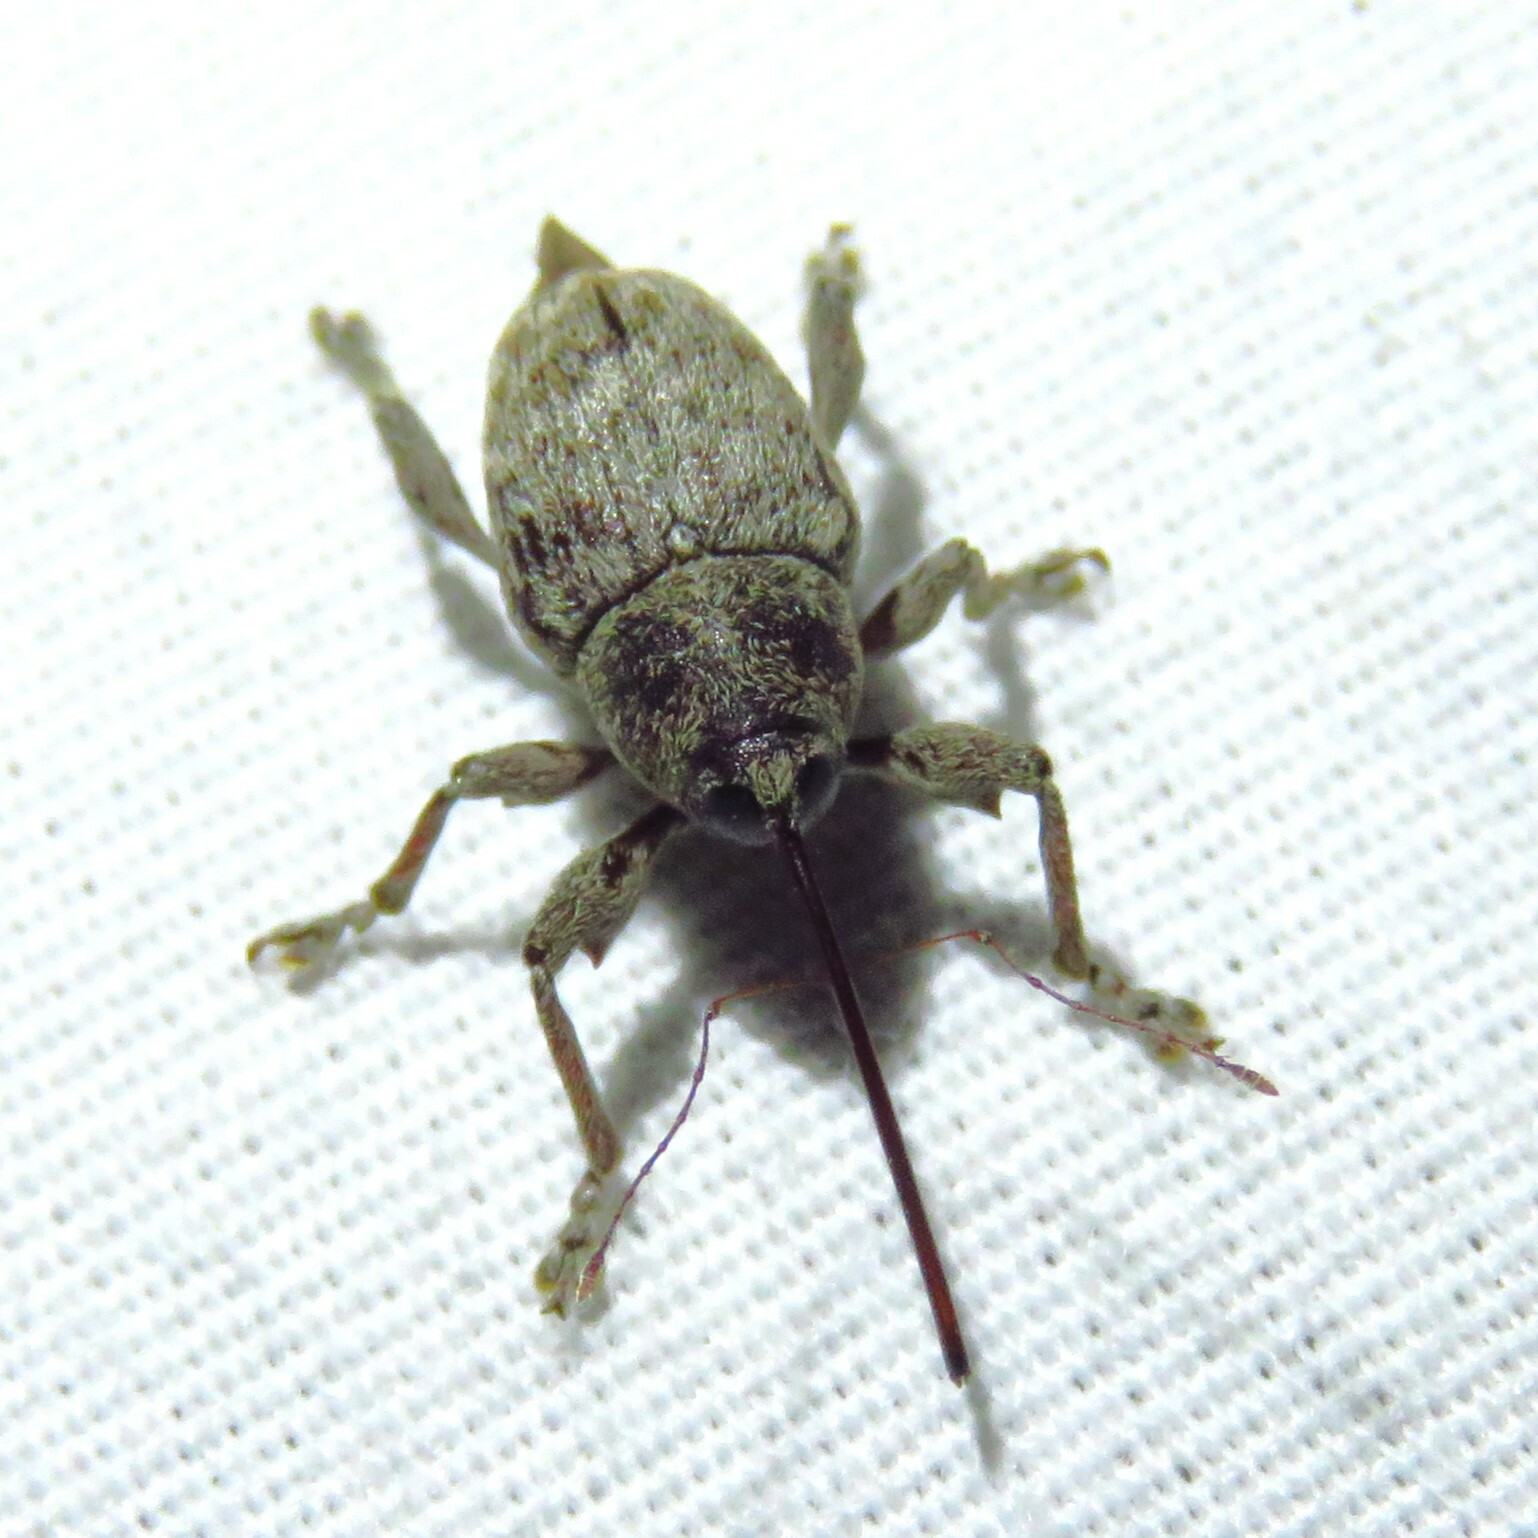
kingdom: Animalia
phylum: Arthropoda
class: Insecta
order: Coleoptera
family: Curculionidae
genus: Curculio
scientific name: Curculio
